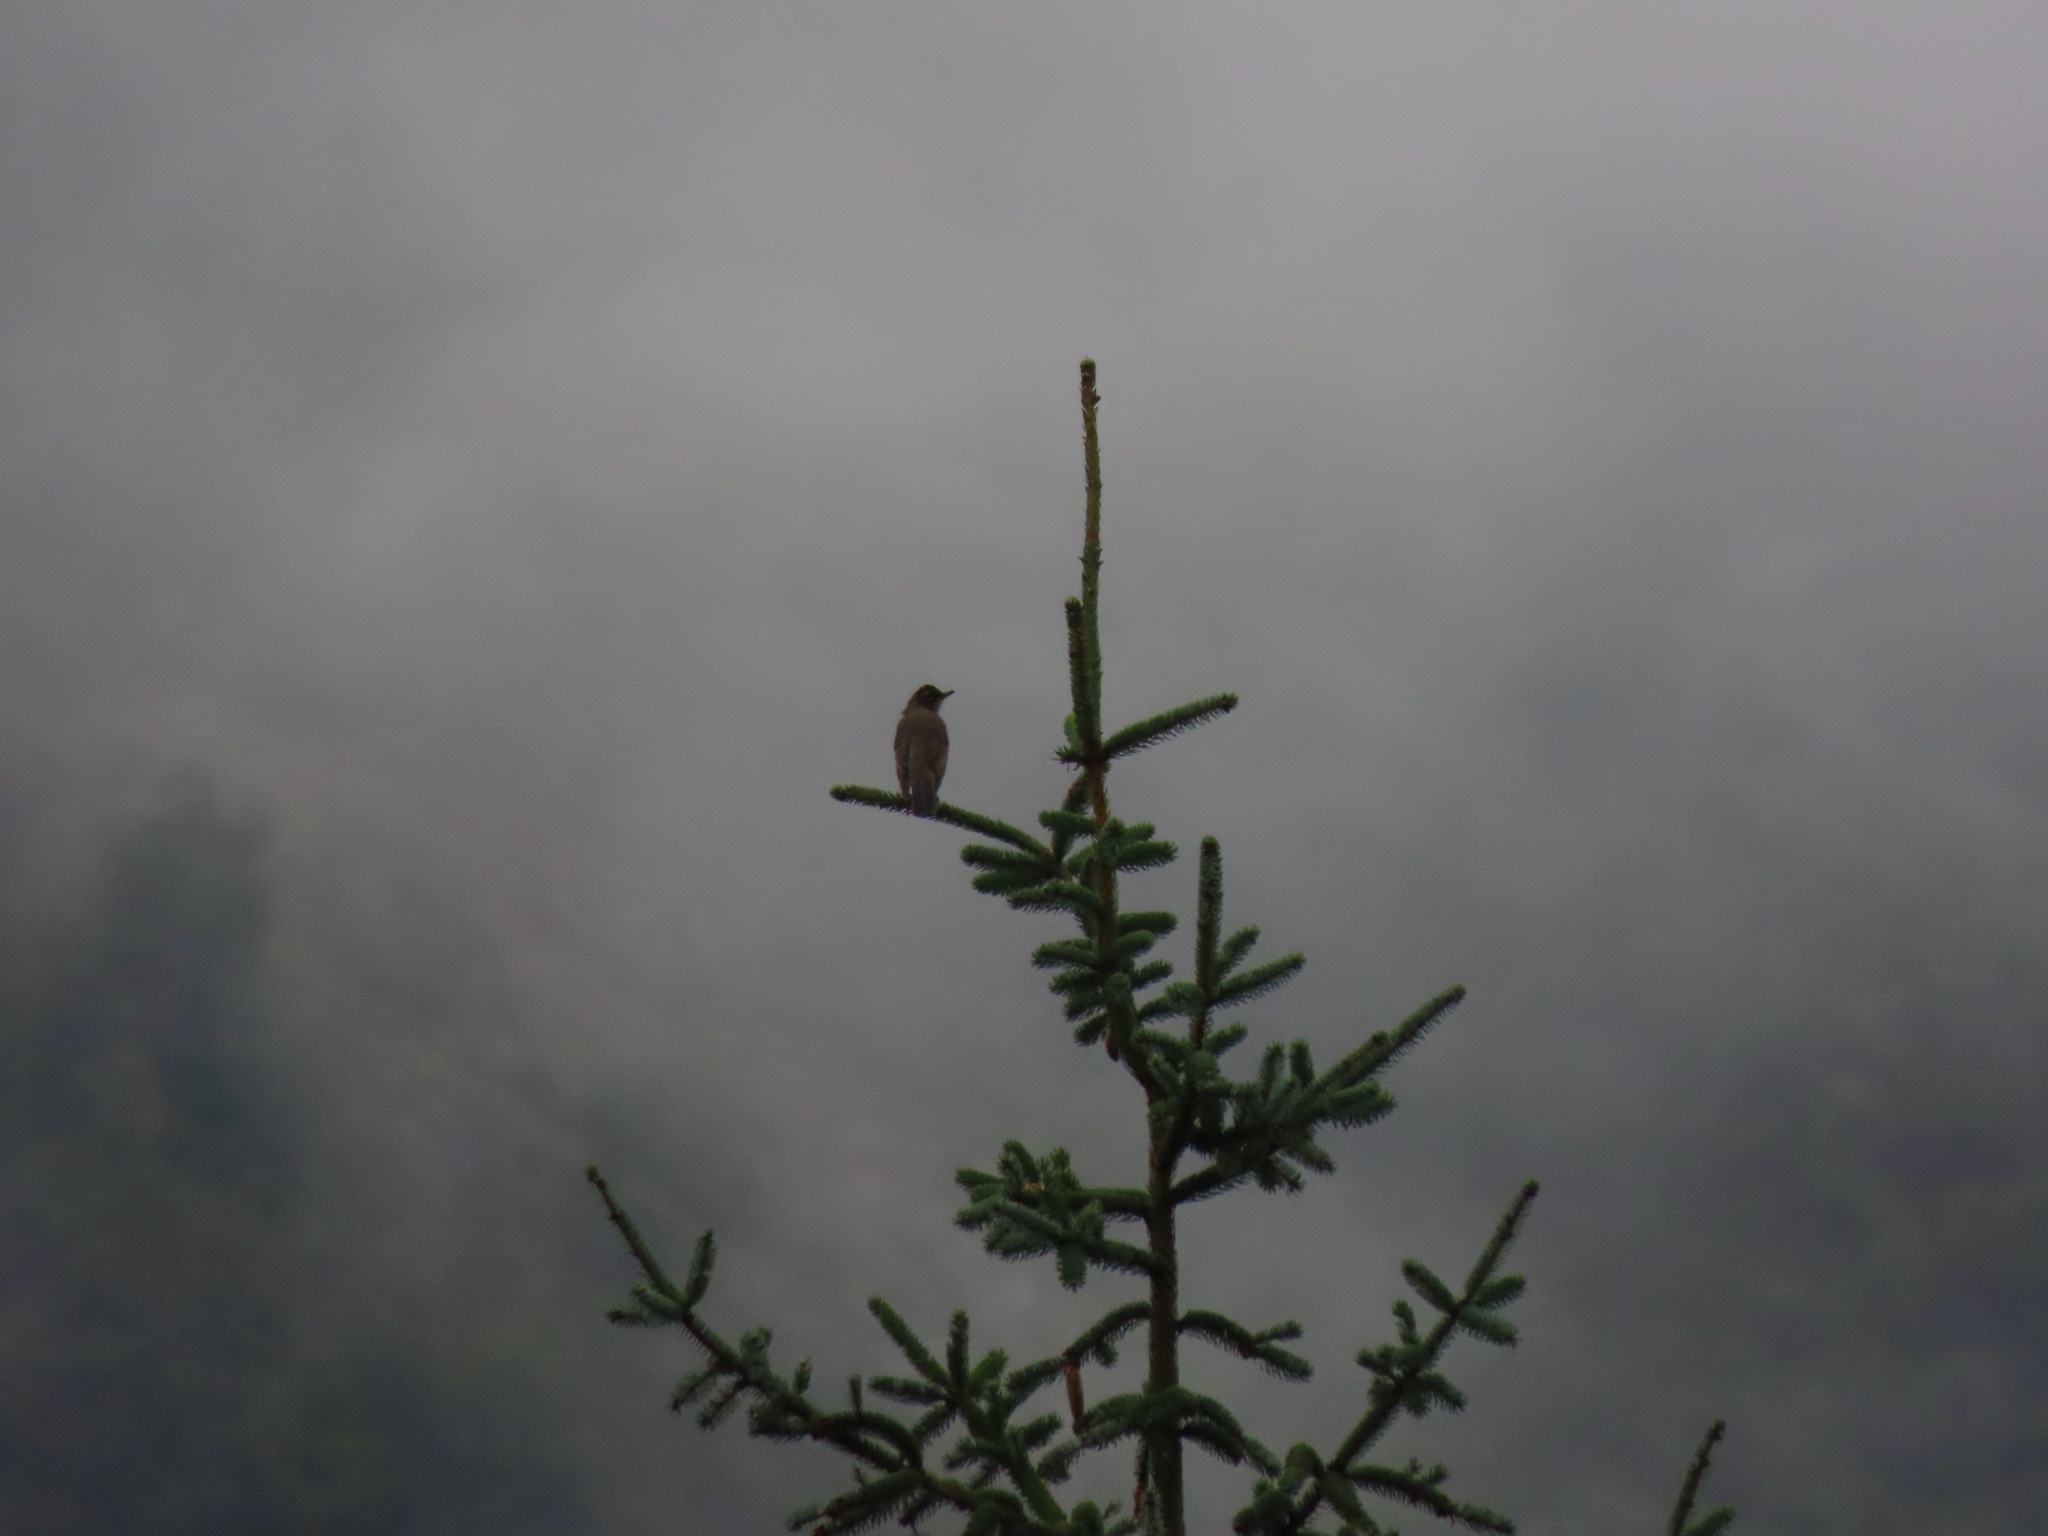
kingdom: Animalia
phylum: Chordata
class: Aves
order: Passeriformes
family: Turdidae
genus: Turdus
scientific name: Turdus migratorius
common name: American robin
